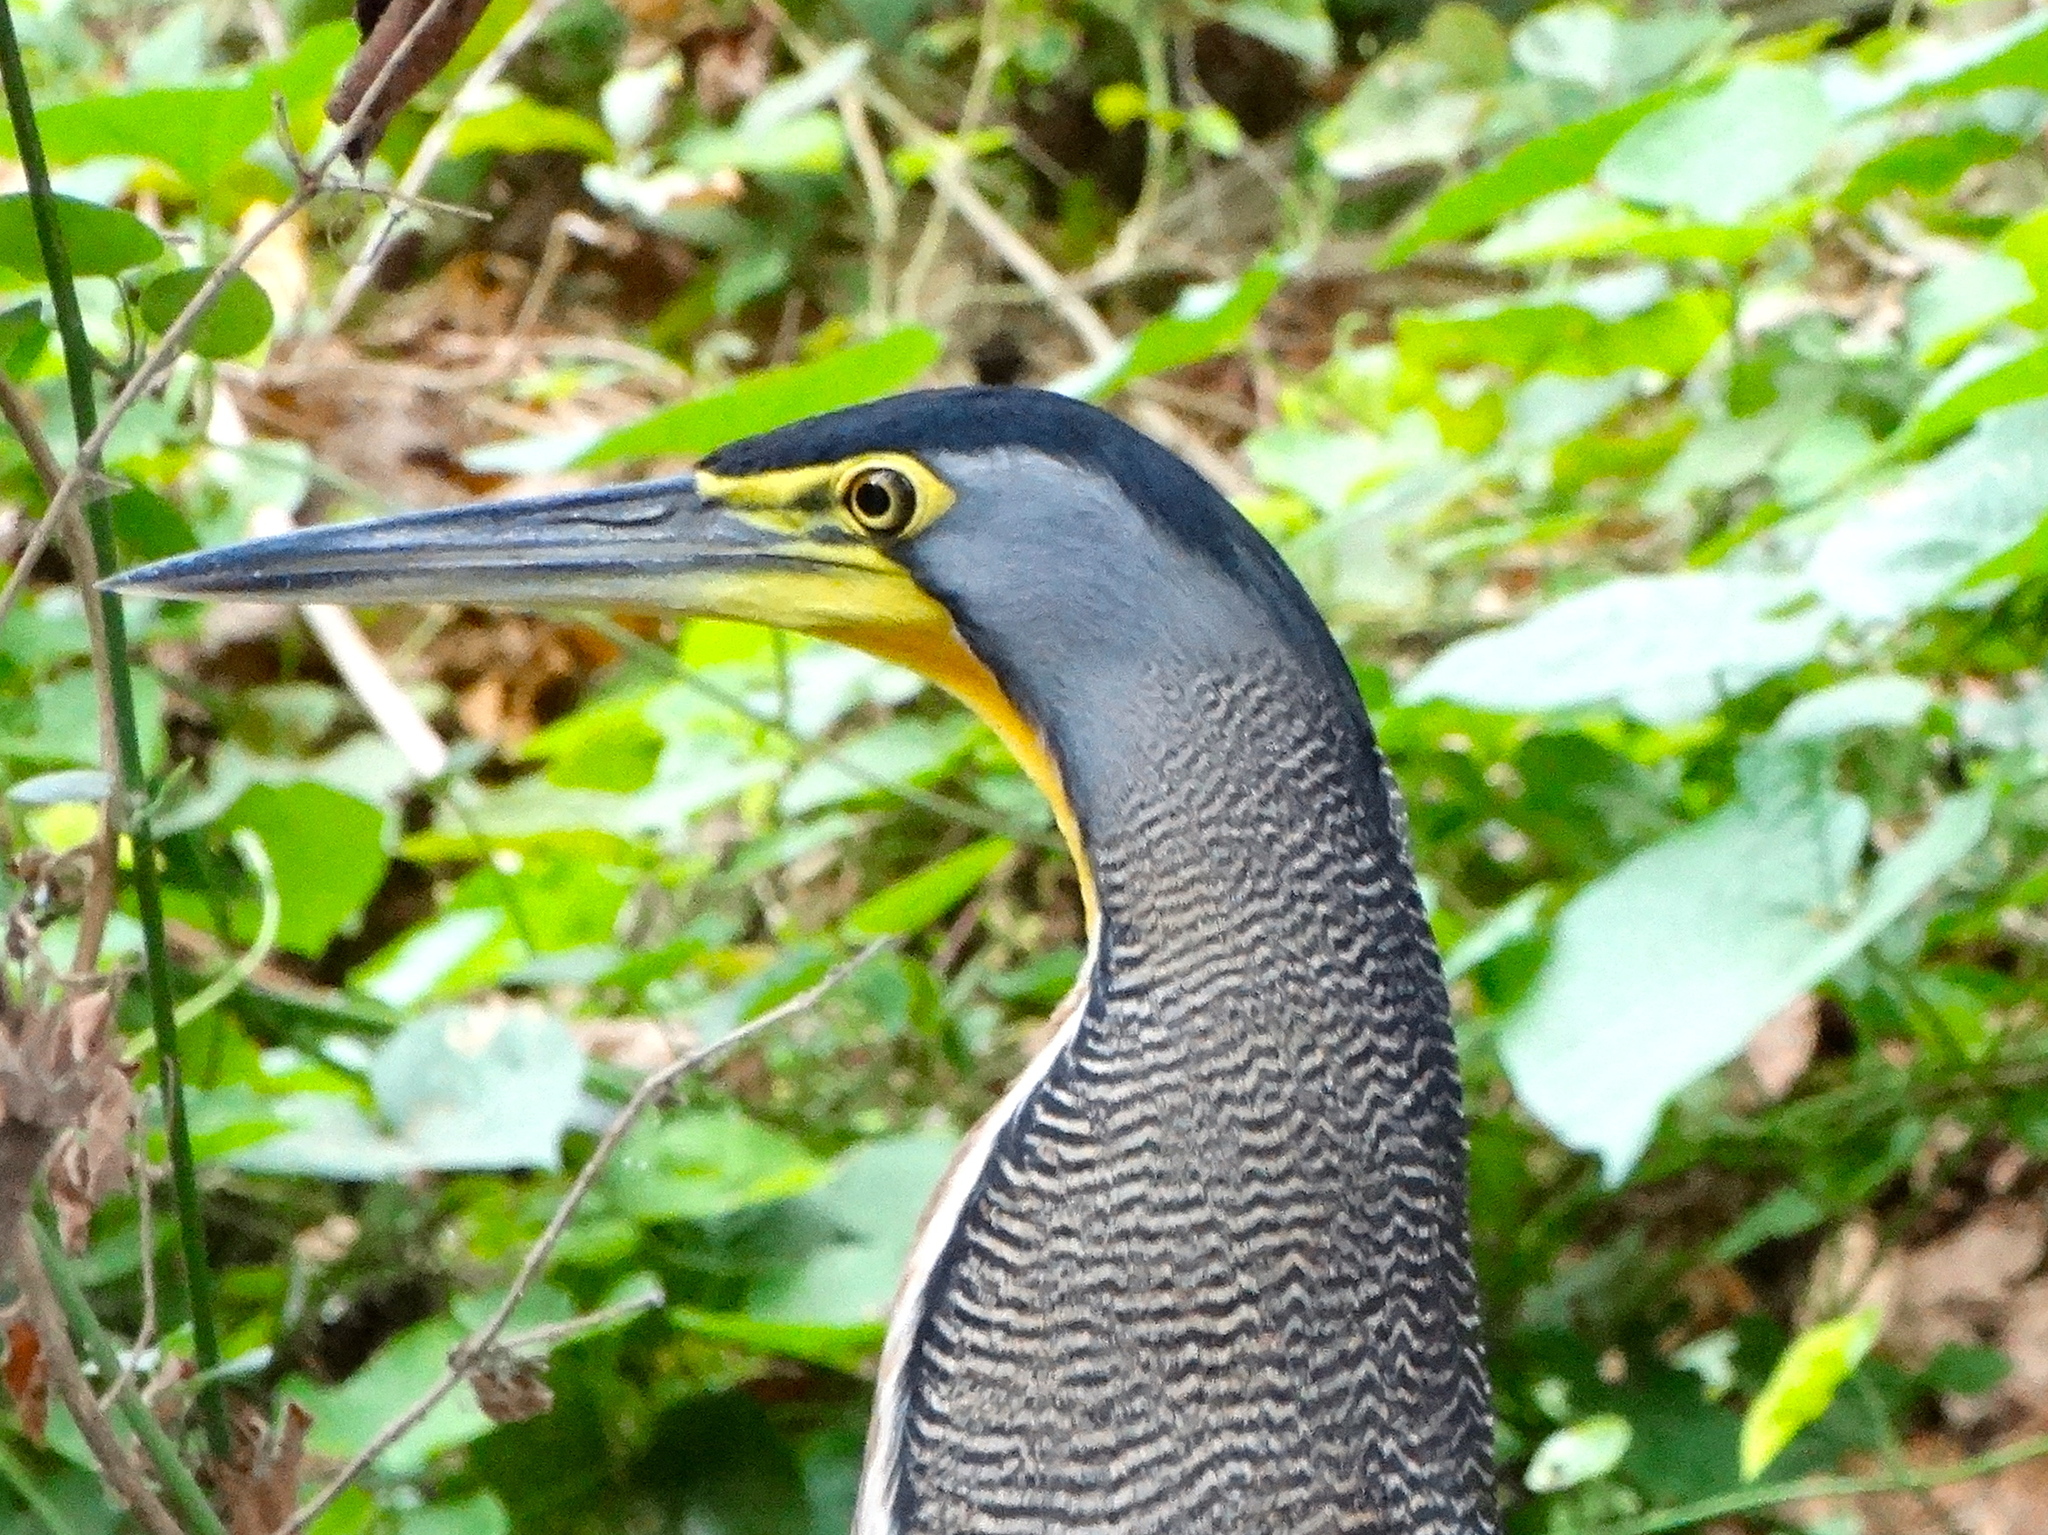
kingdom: Animalia
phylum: Chordata
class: Aves
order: Pelecaniformes
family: Ardeidae
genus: Tigrisoma
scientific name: Tigrisoma mexicanum
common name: Bare-throated tiger-heron
